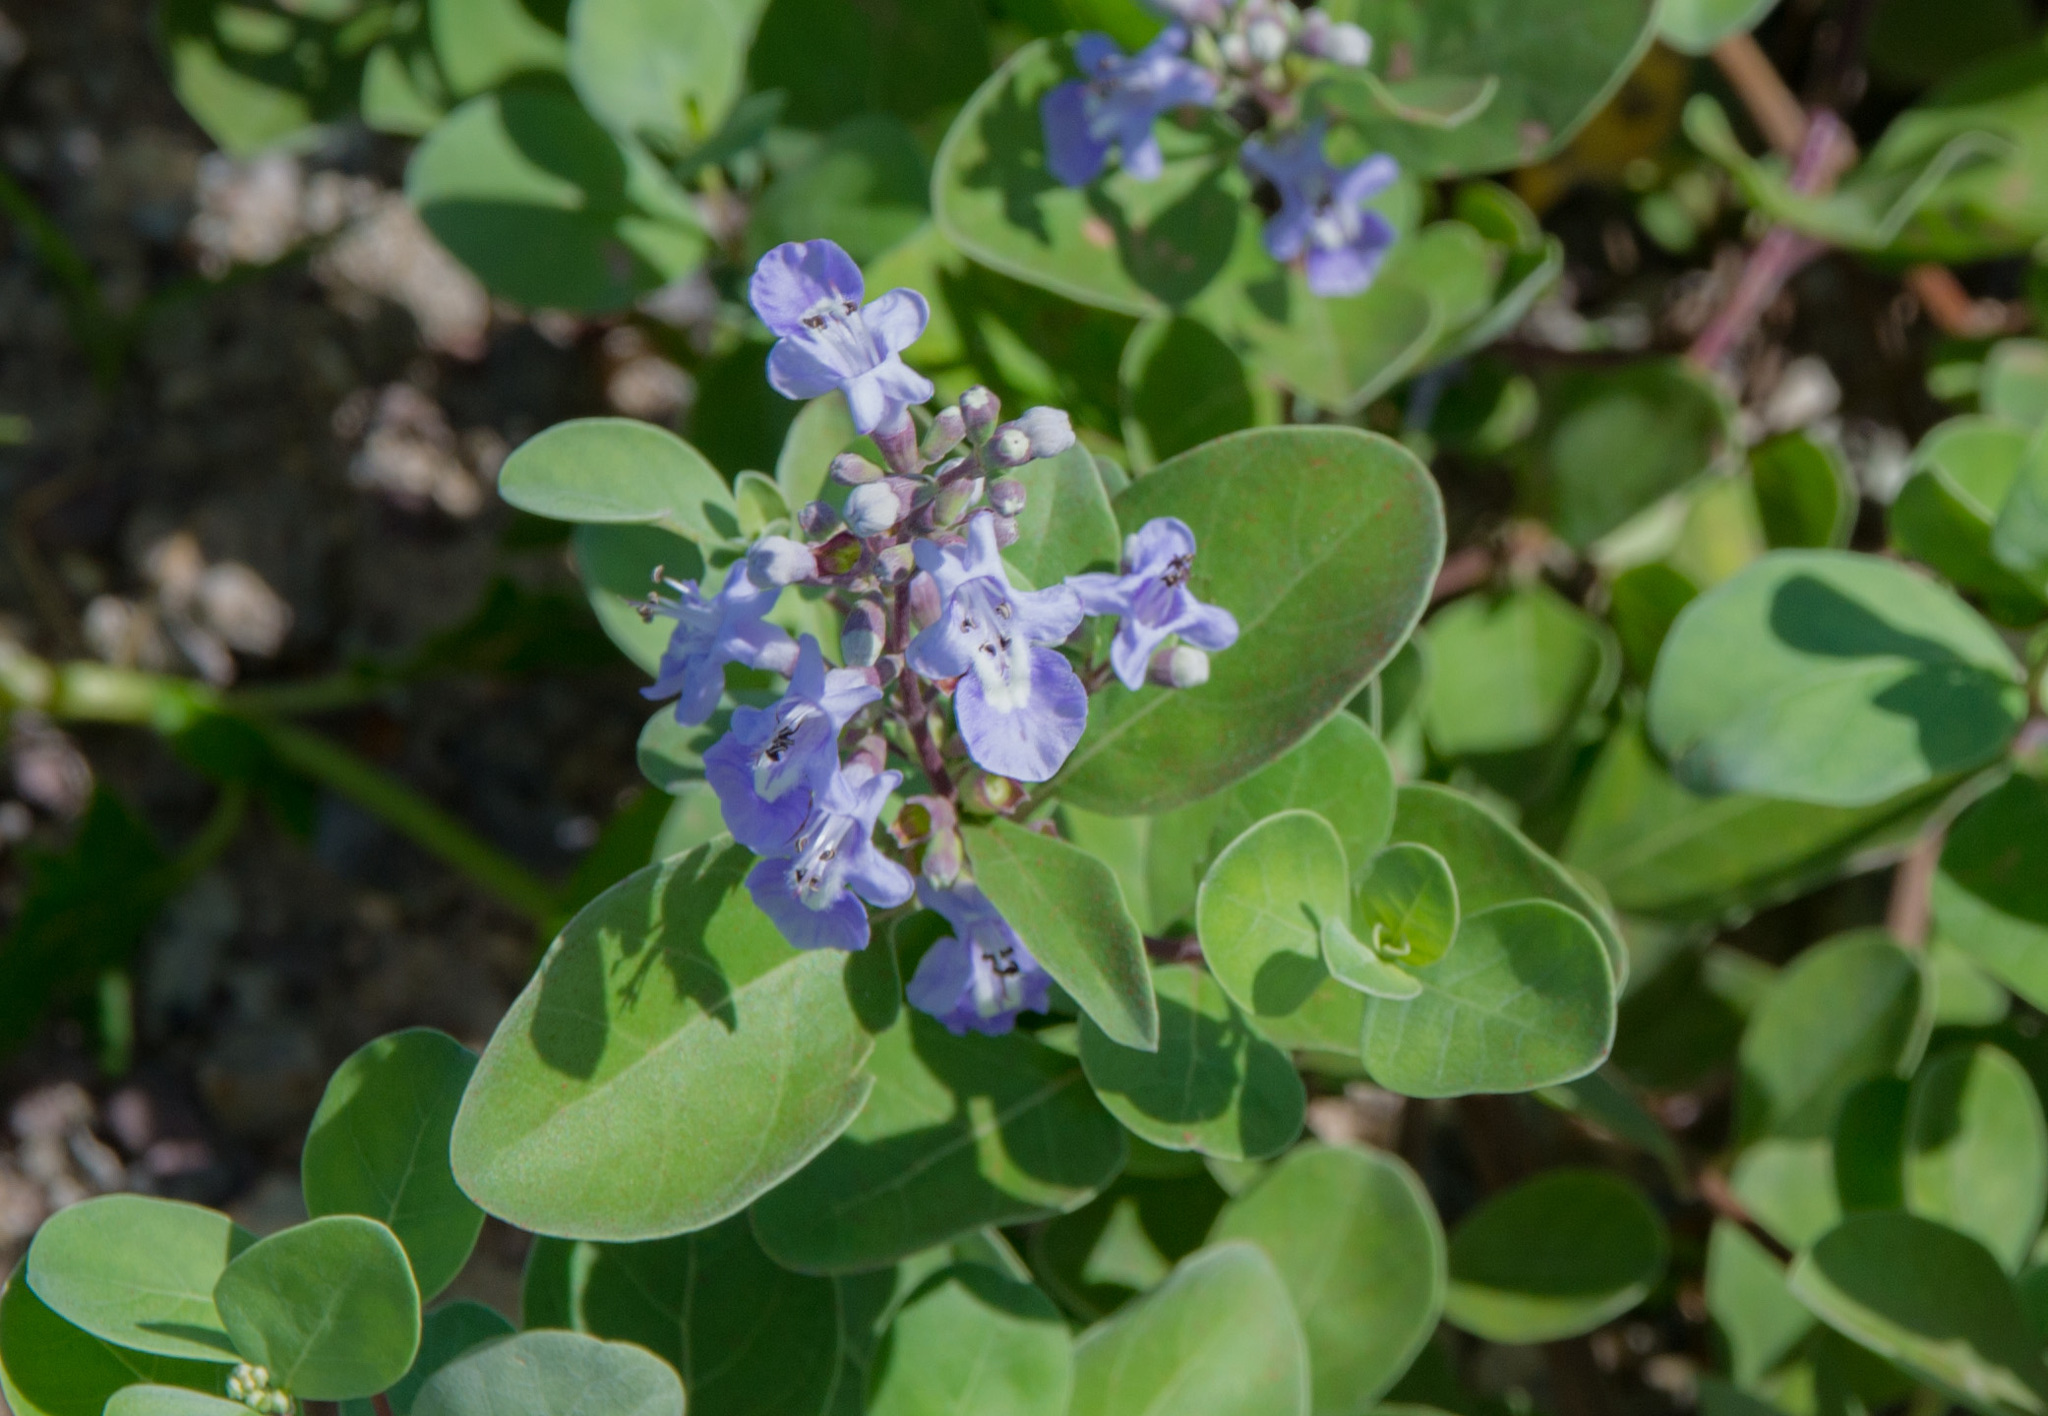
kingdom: Plantae
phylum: Tracheophyta
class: Magnoliopsida
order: Lamiales
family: Lamiaceae
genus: Vitex
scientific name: Vitex rotundifolia
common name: Beach vitex
